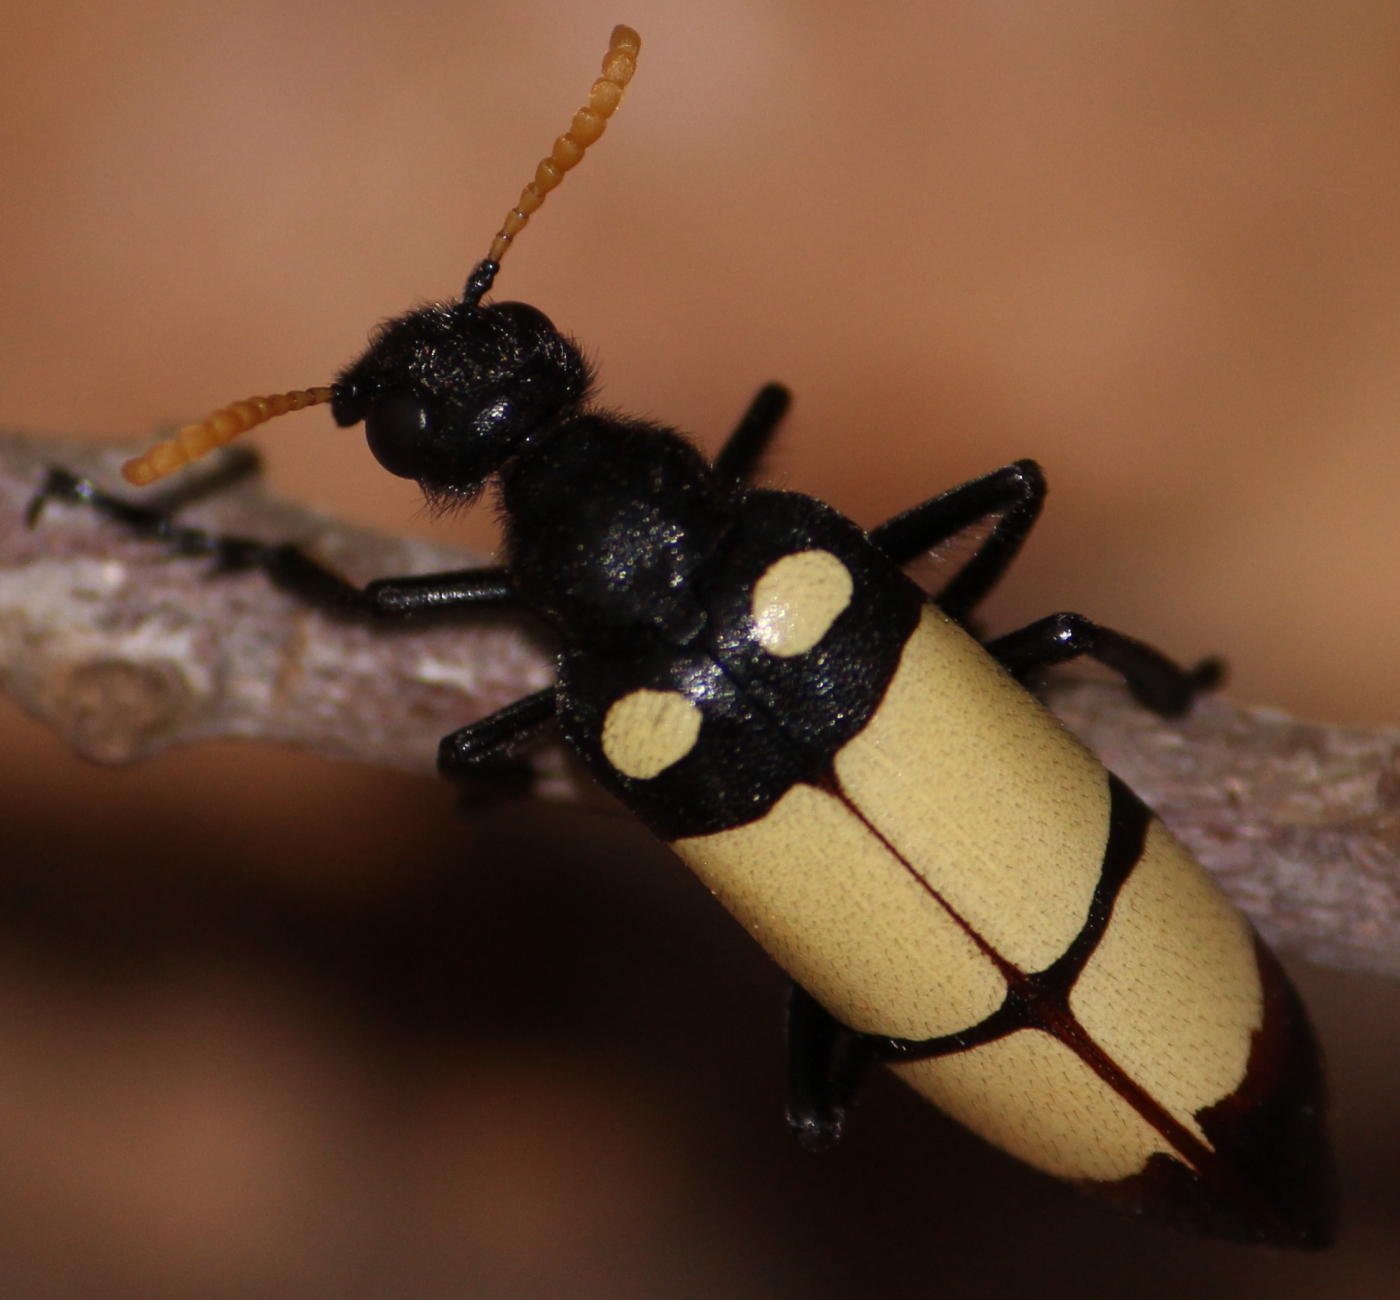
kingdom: Animalia
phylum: Arthropoda
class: Insecta
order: Coleoptera
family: Meloidae
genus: Hycleus
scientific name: Hycleus
